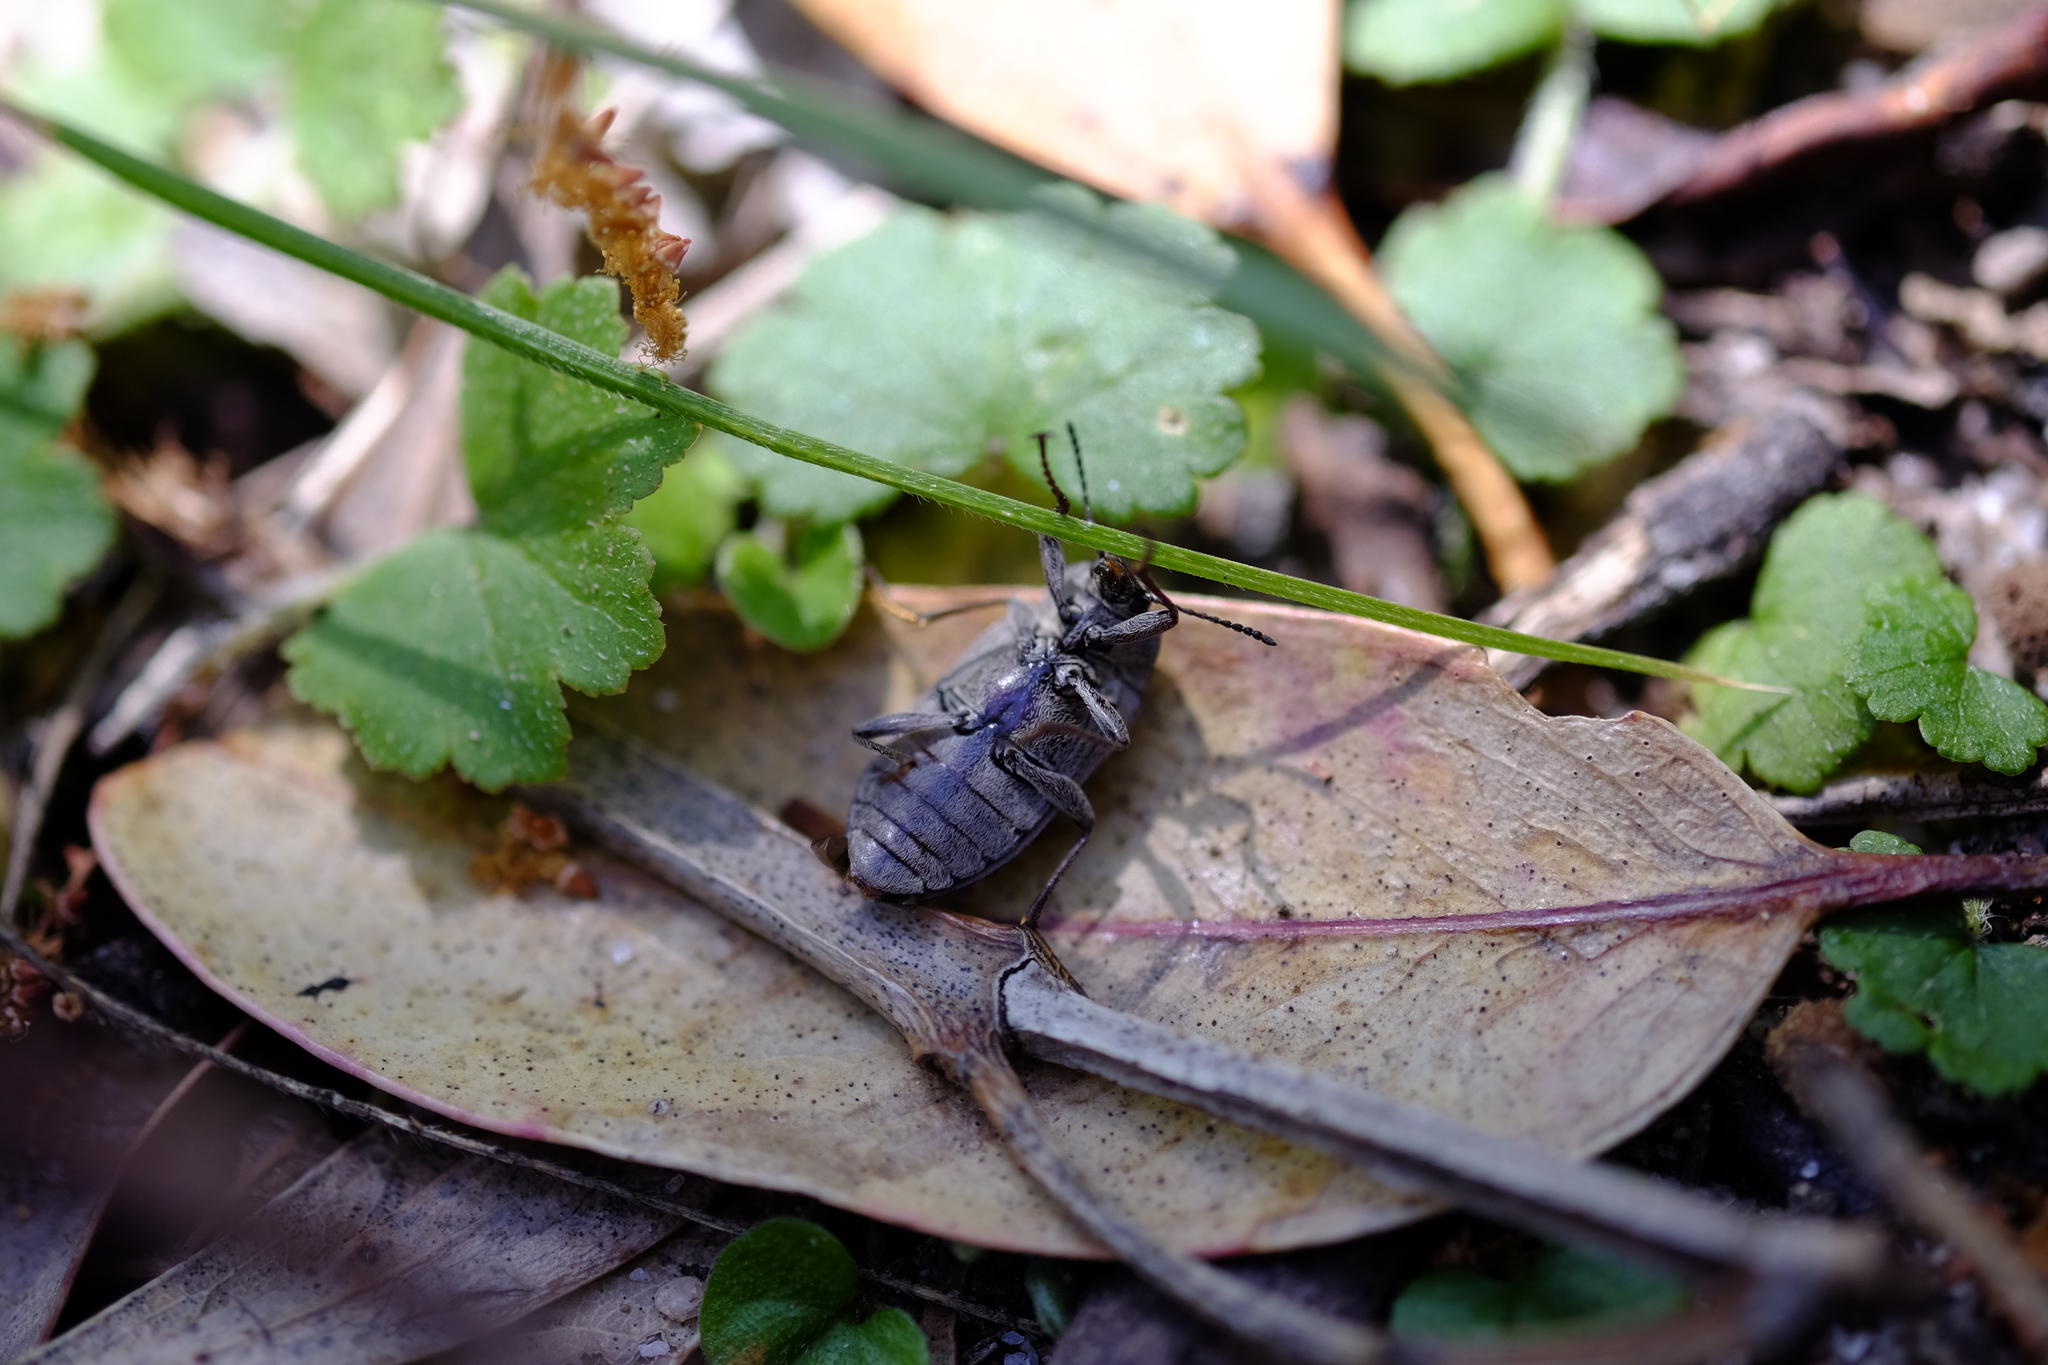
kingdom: Animalia
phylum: Arthropoda
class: Insecta
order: Coleoptera
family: Tenebrionidae
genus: Pachycoelia
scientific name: Pachycoelia
